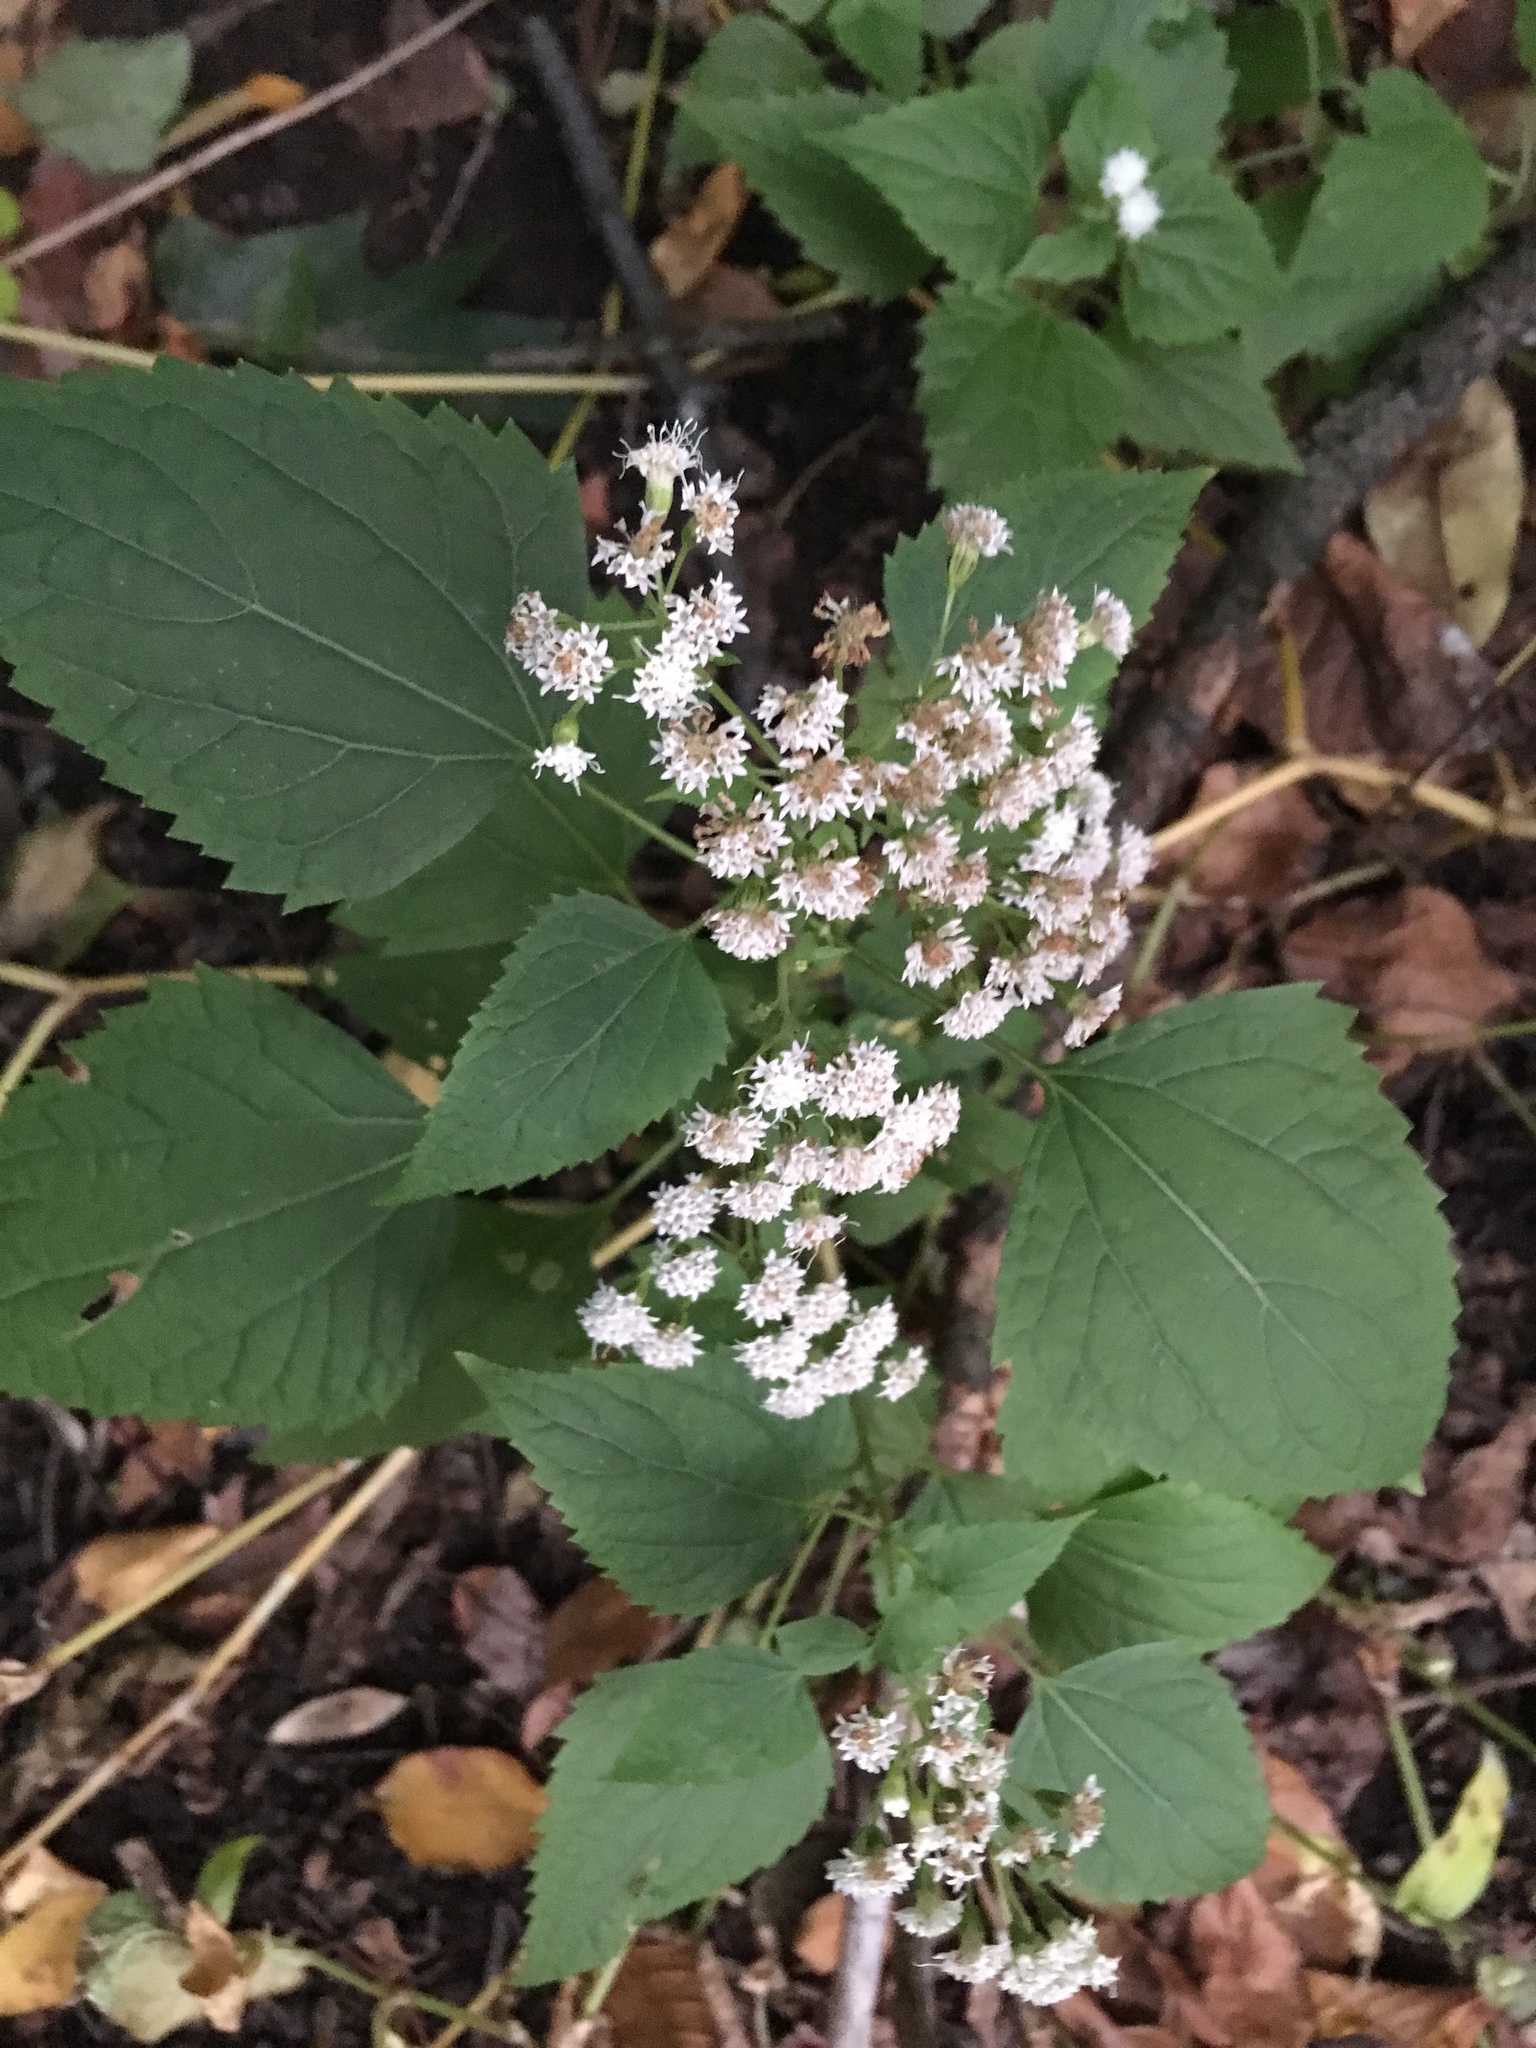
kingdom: Plantae
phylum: Tracheophyta
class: Magnoliopsida
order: Asterales
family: Asteraceae
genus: Ageratina
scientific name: Ageratina altissima
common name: White snakeroot
